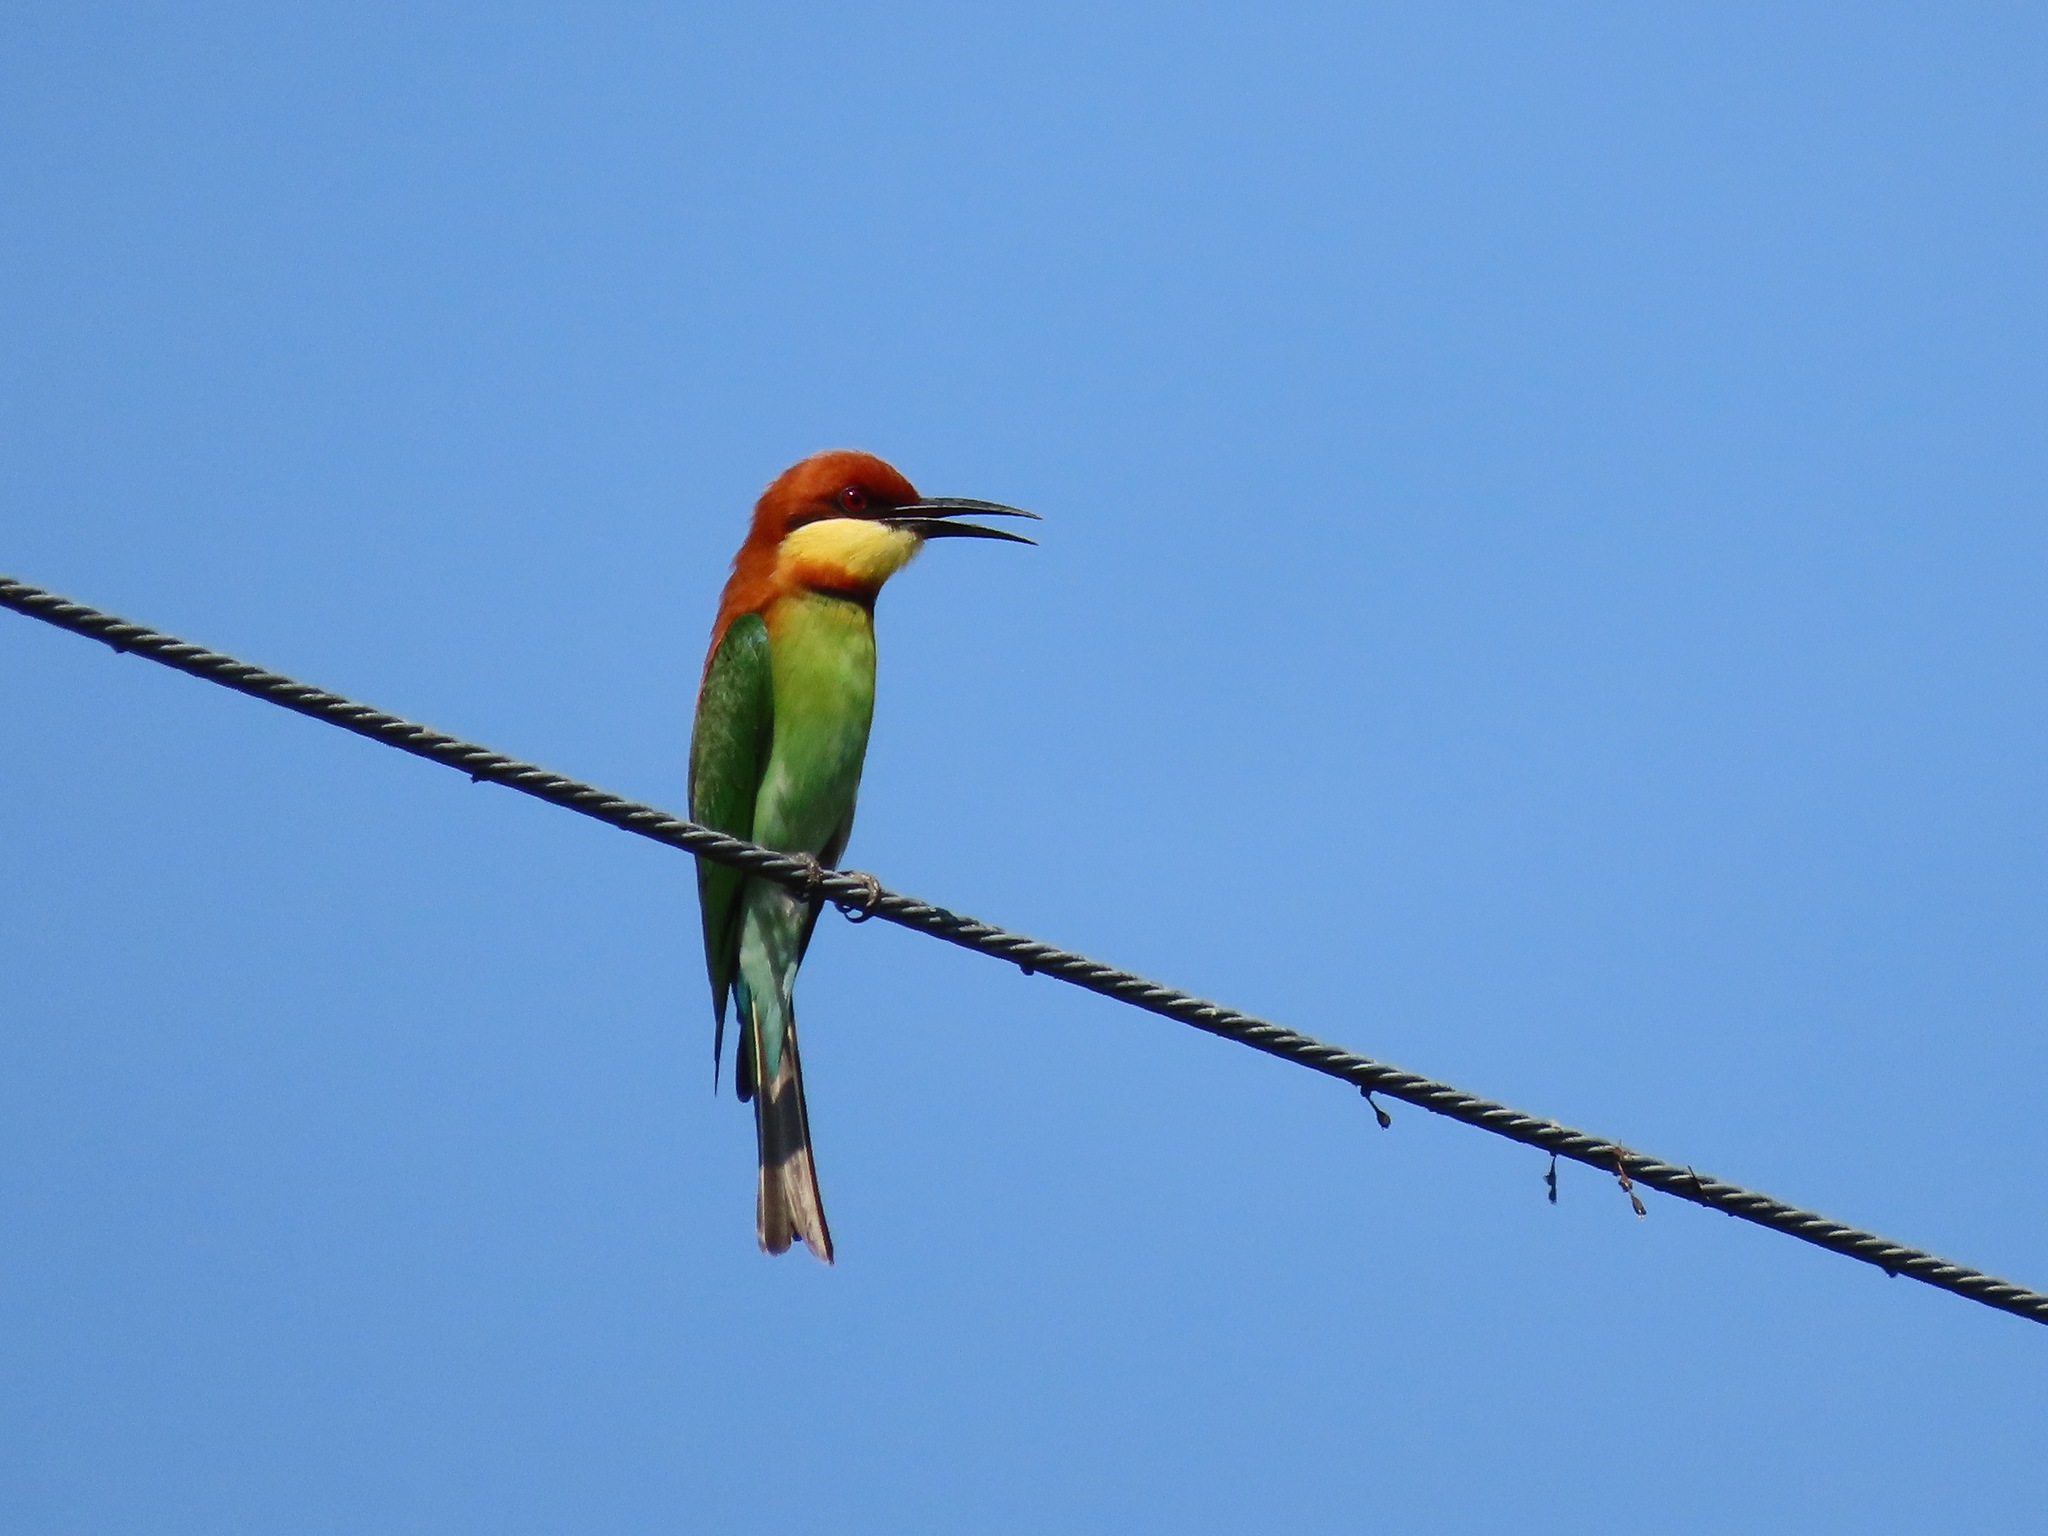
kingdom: Animalia
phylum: Chordata
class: Aves
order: Coraciiformes
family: Meropidae
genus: Merops
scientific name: Merops leschenaulti
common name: Chestnut-headed bee-eater
